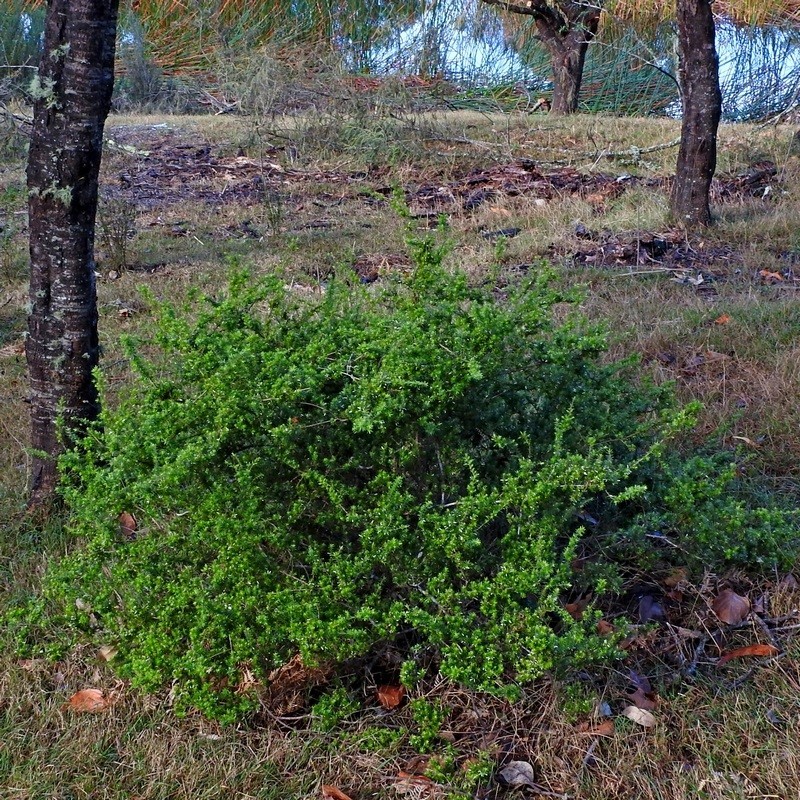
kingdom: Plantae
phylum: Tracheophyta
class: Magnoliopsida
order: Ericales
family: Ericaceae
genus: Styphelia
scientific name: Styphelia sieberi
